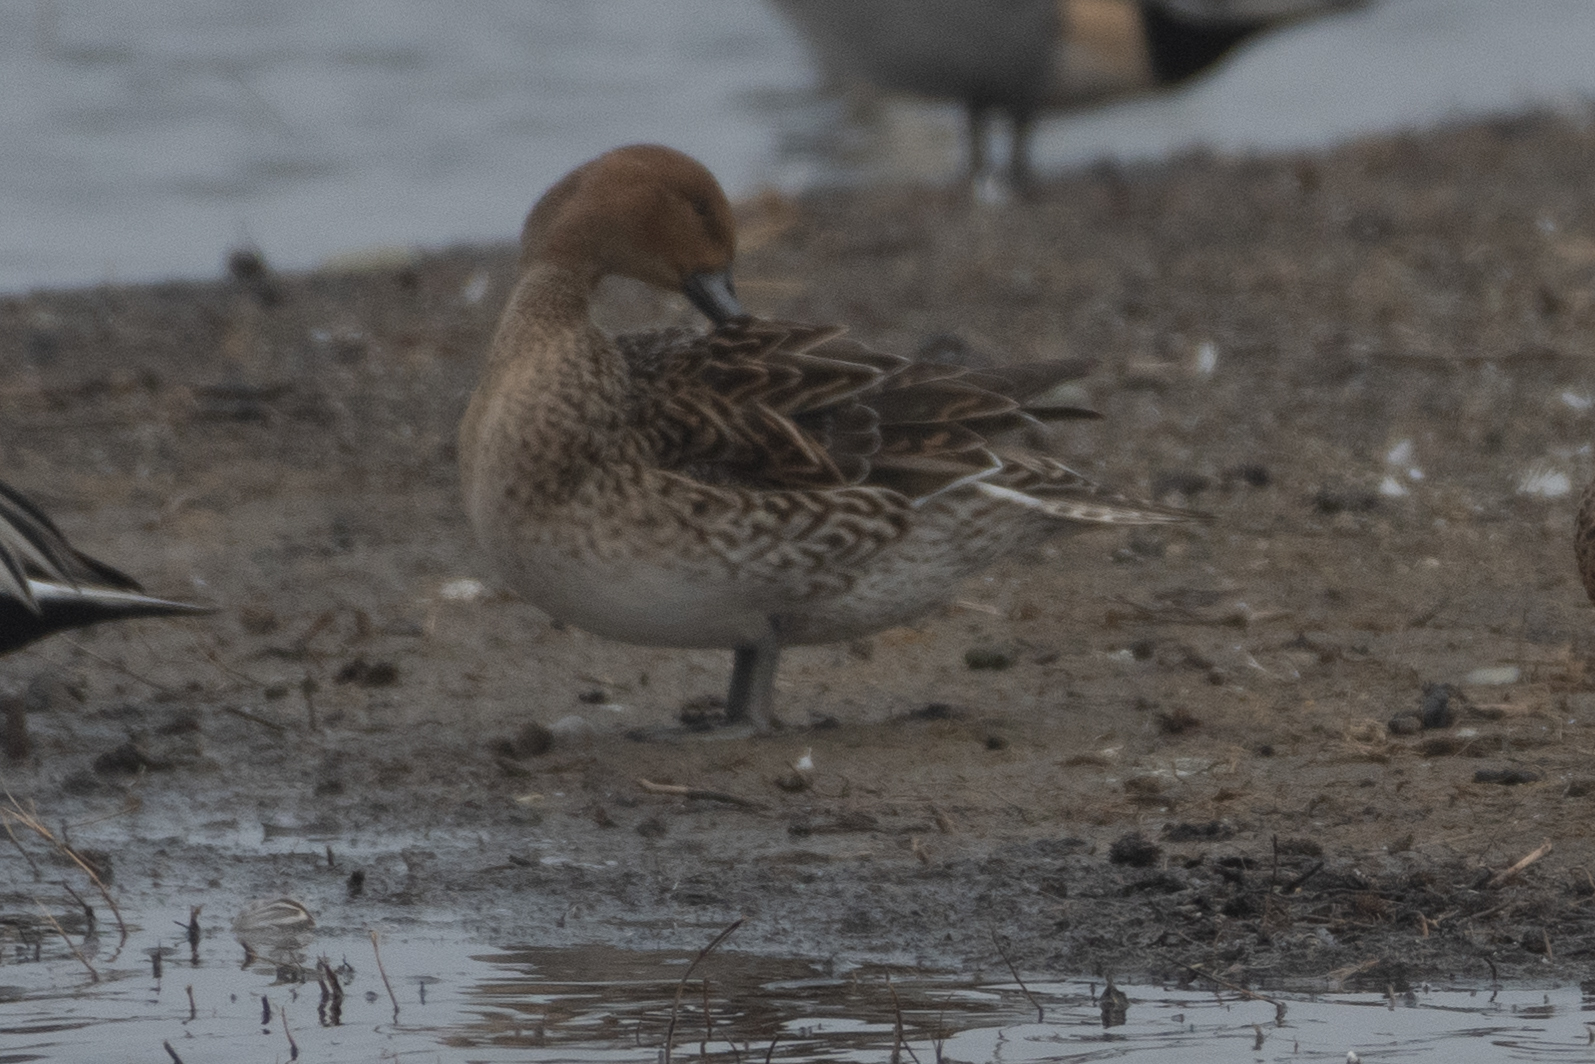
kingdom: Animalia
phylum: Chordata
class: Aves
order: Anseriformes
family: Anatidae
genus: Anas
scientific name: Anas acuta
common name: Northern pintail
